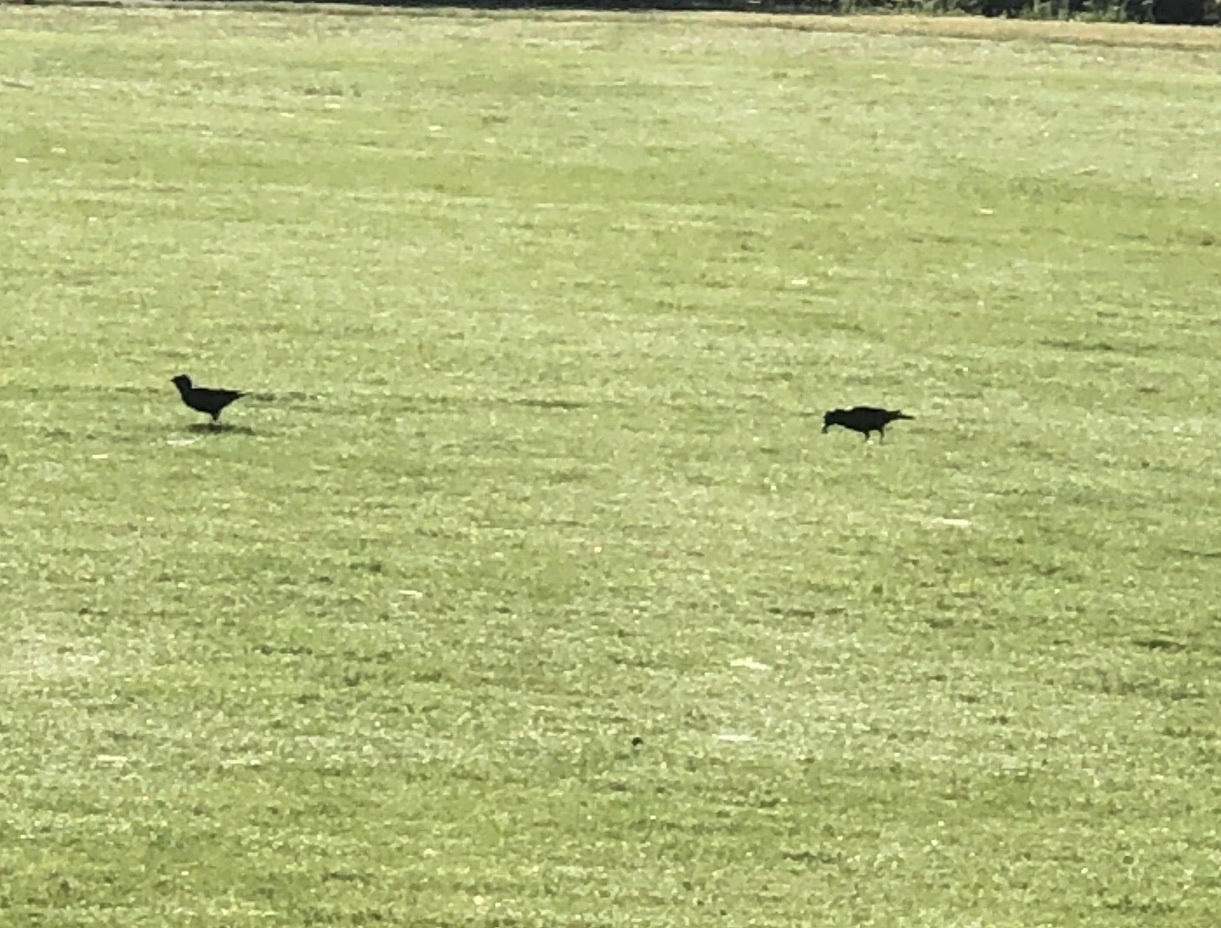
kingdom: Animalia
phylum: Chordata
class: Aves
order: Passeriformes
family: Sturnidae
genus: Sturnus
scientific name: Sturnus vulgaris
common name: Common starling
